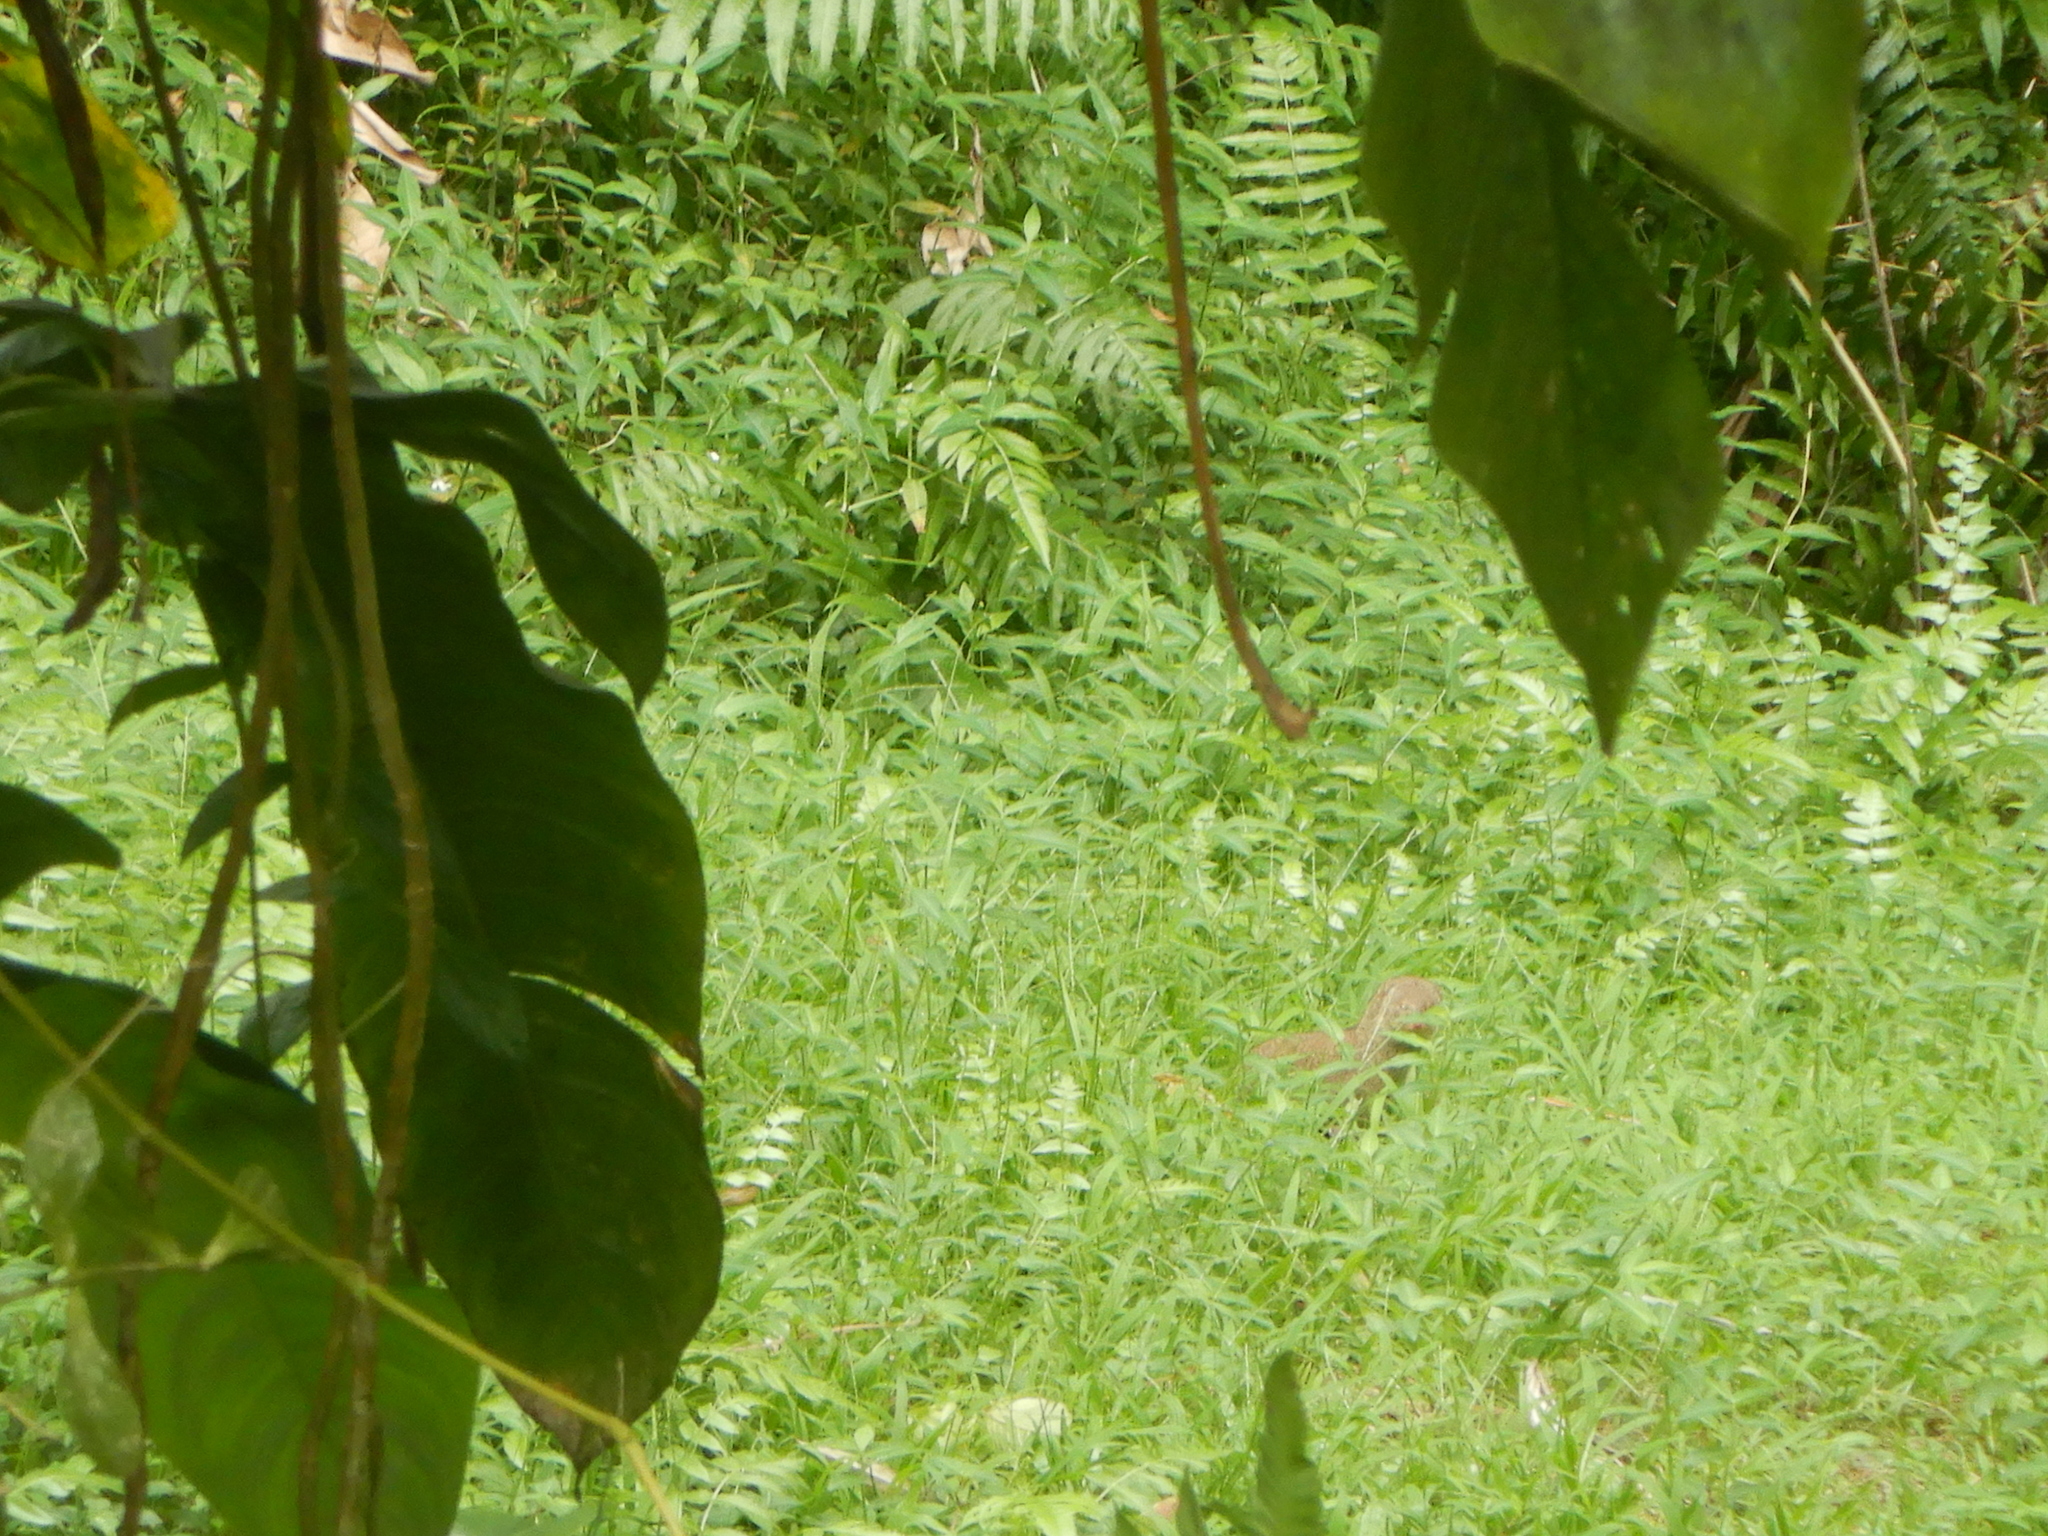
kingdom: Animalia
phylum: Chordata
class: Mammalia
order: Carnivora
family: Herpestidae
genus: Herpestes
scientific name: Herpestes javanicus
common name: Small asian mongoose
